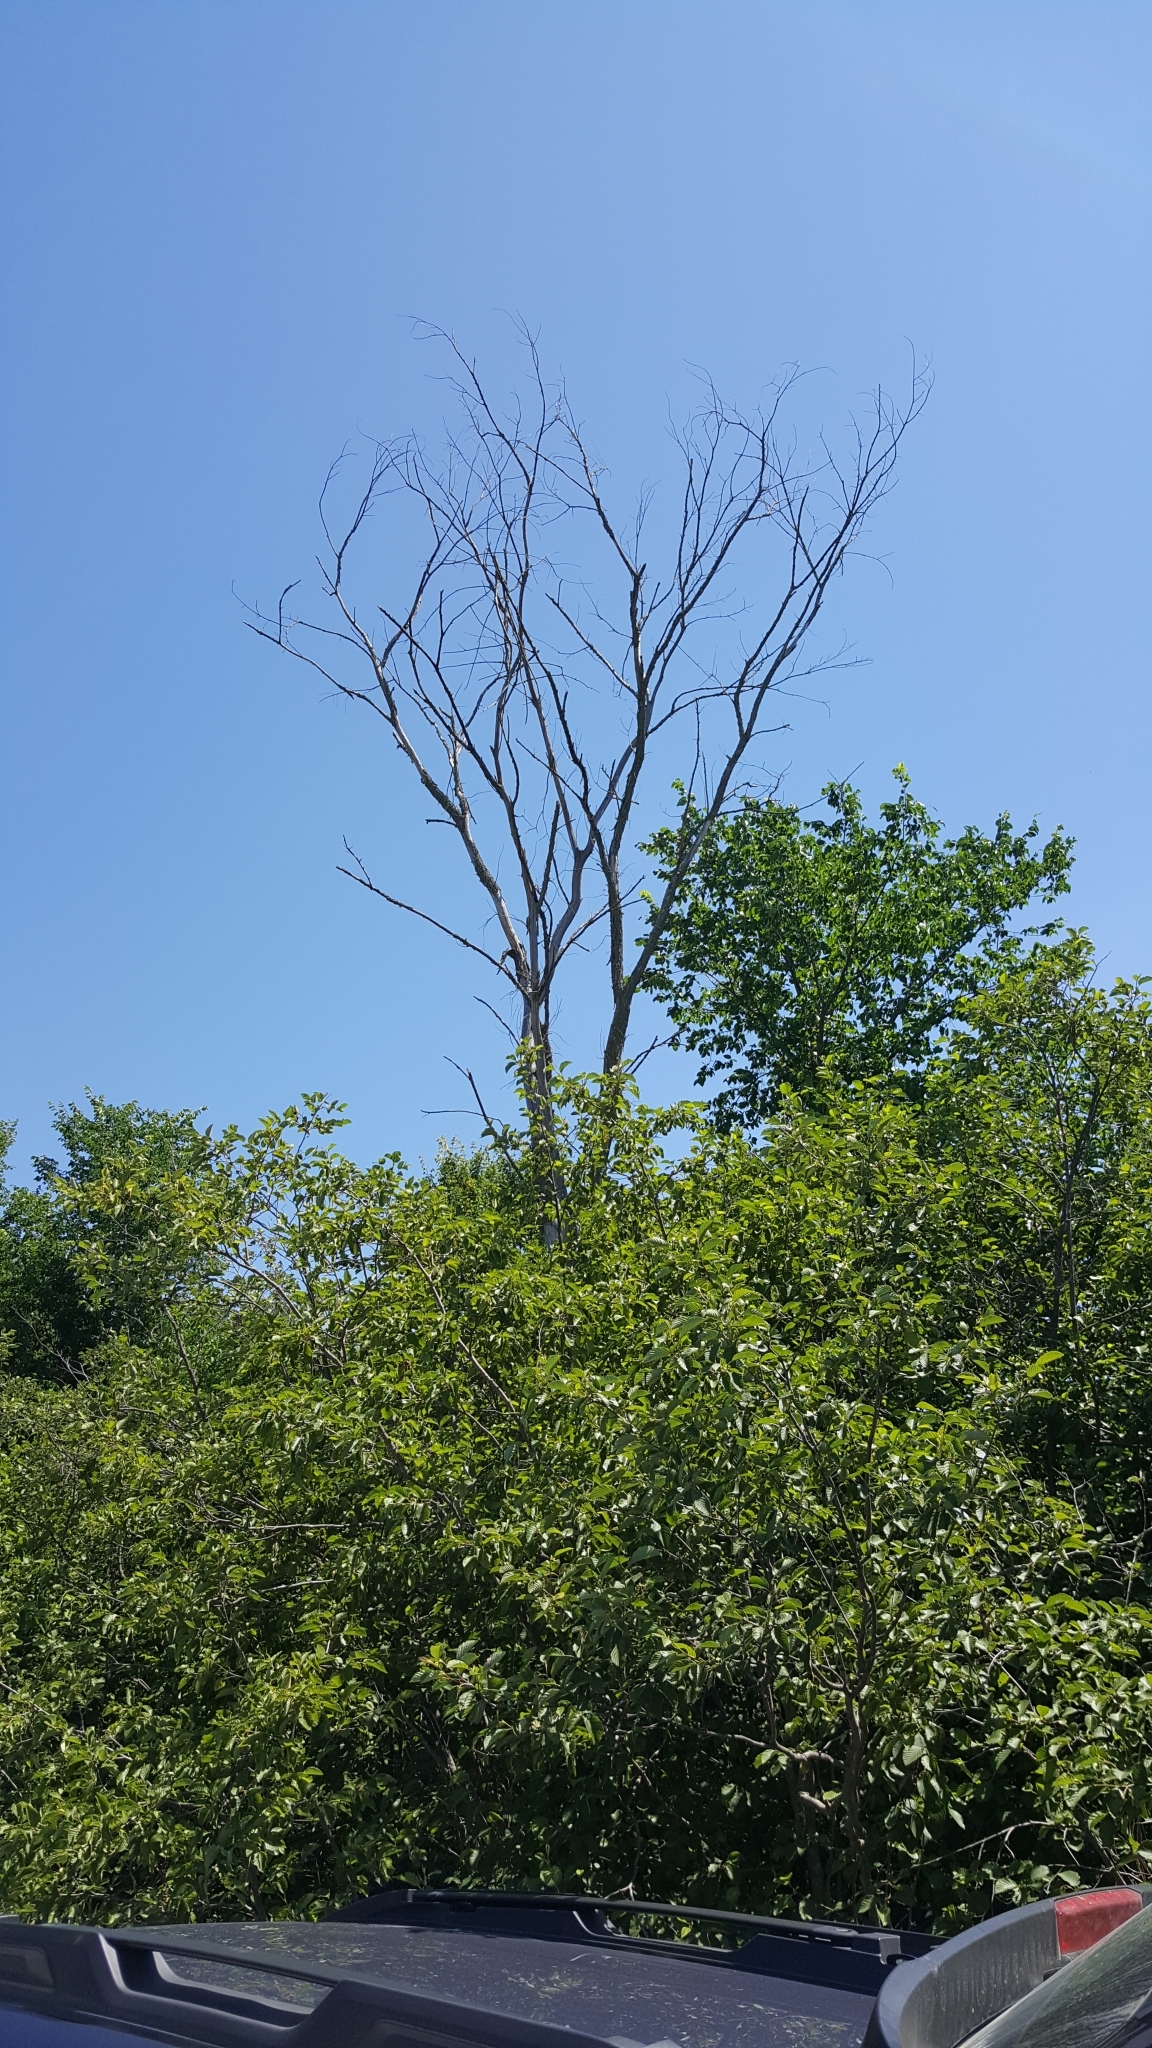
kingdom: Plantae
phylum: Tracheophyta
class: Magnoliopsida
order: Rosales
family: Ulmaceae
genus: Ulmus
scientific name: Ulmus americana
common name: American elm
